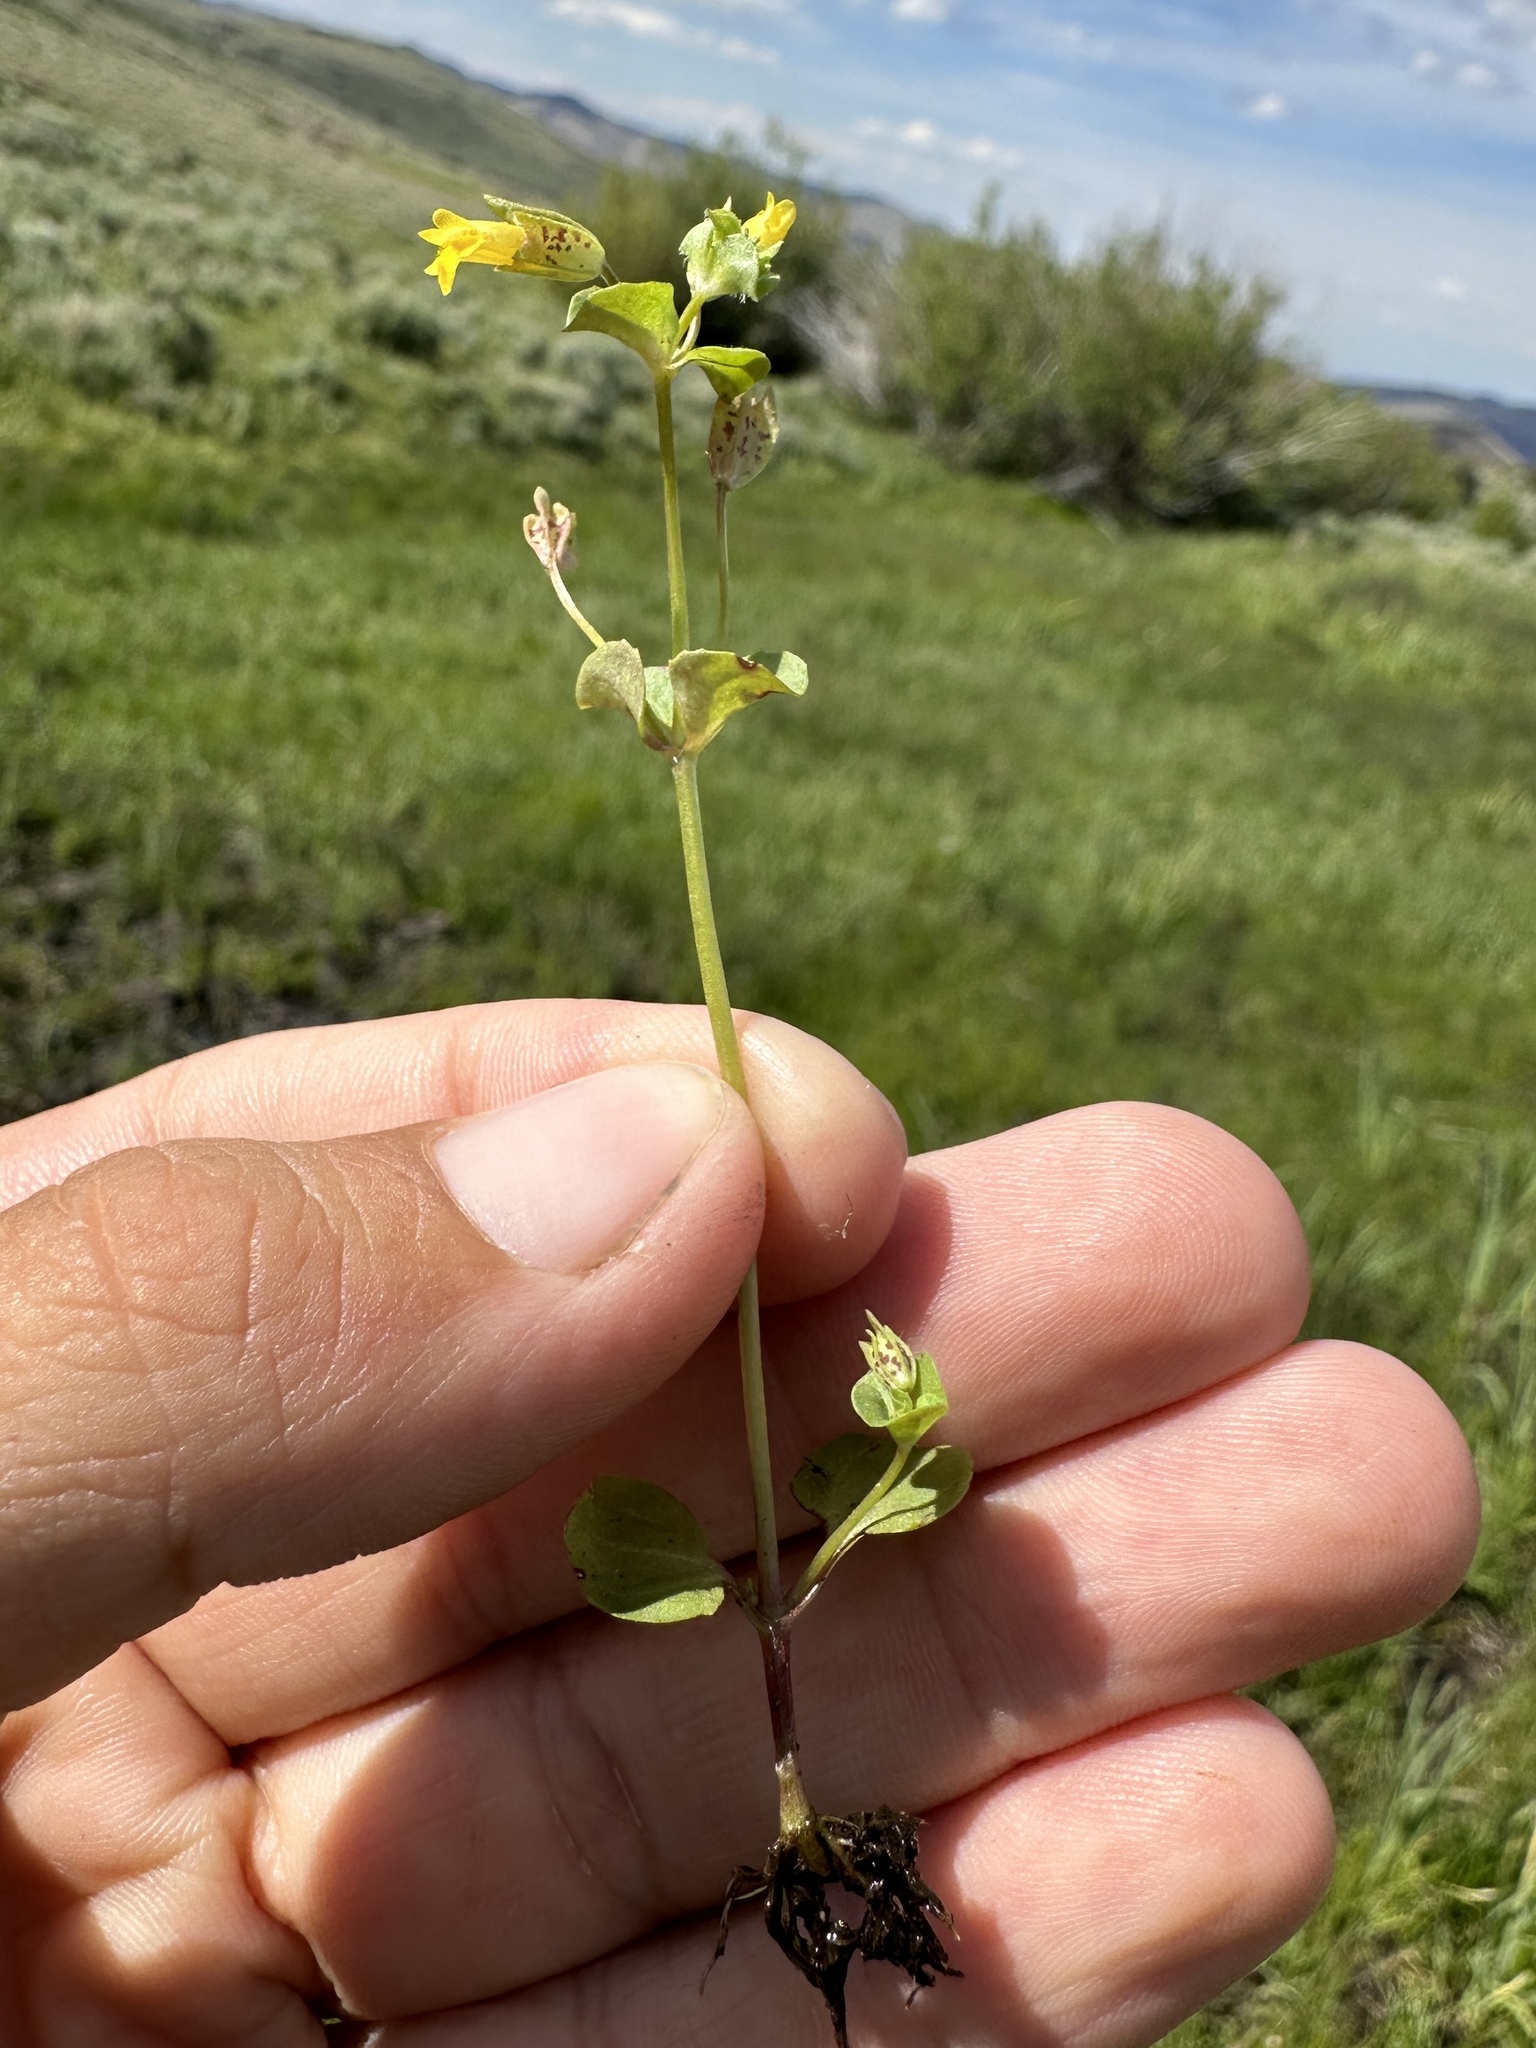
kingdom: Plantae
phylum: Tracheophyta
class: Magnoliopsida
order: Lamiales
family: Phrymaceae
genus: Erythranthe
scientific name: Erythranthe arvensis
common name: Field monkeyflower
